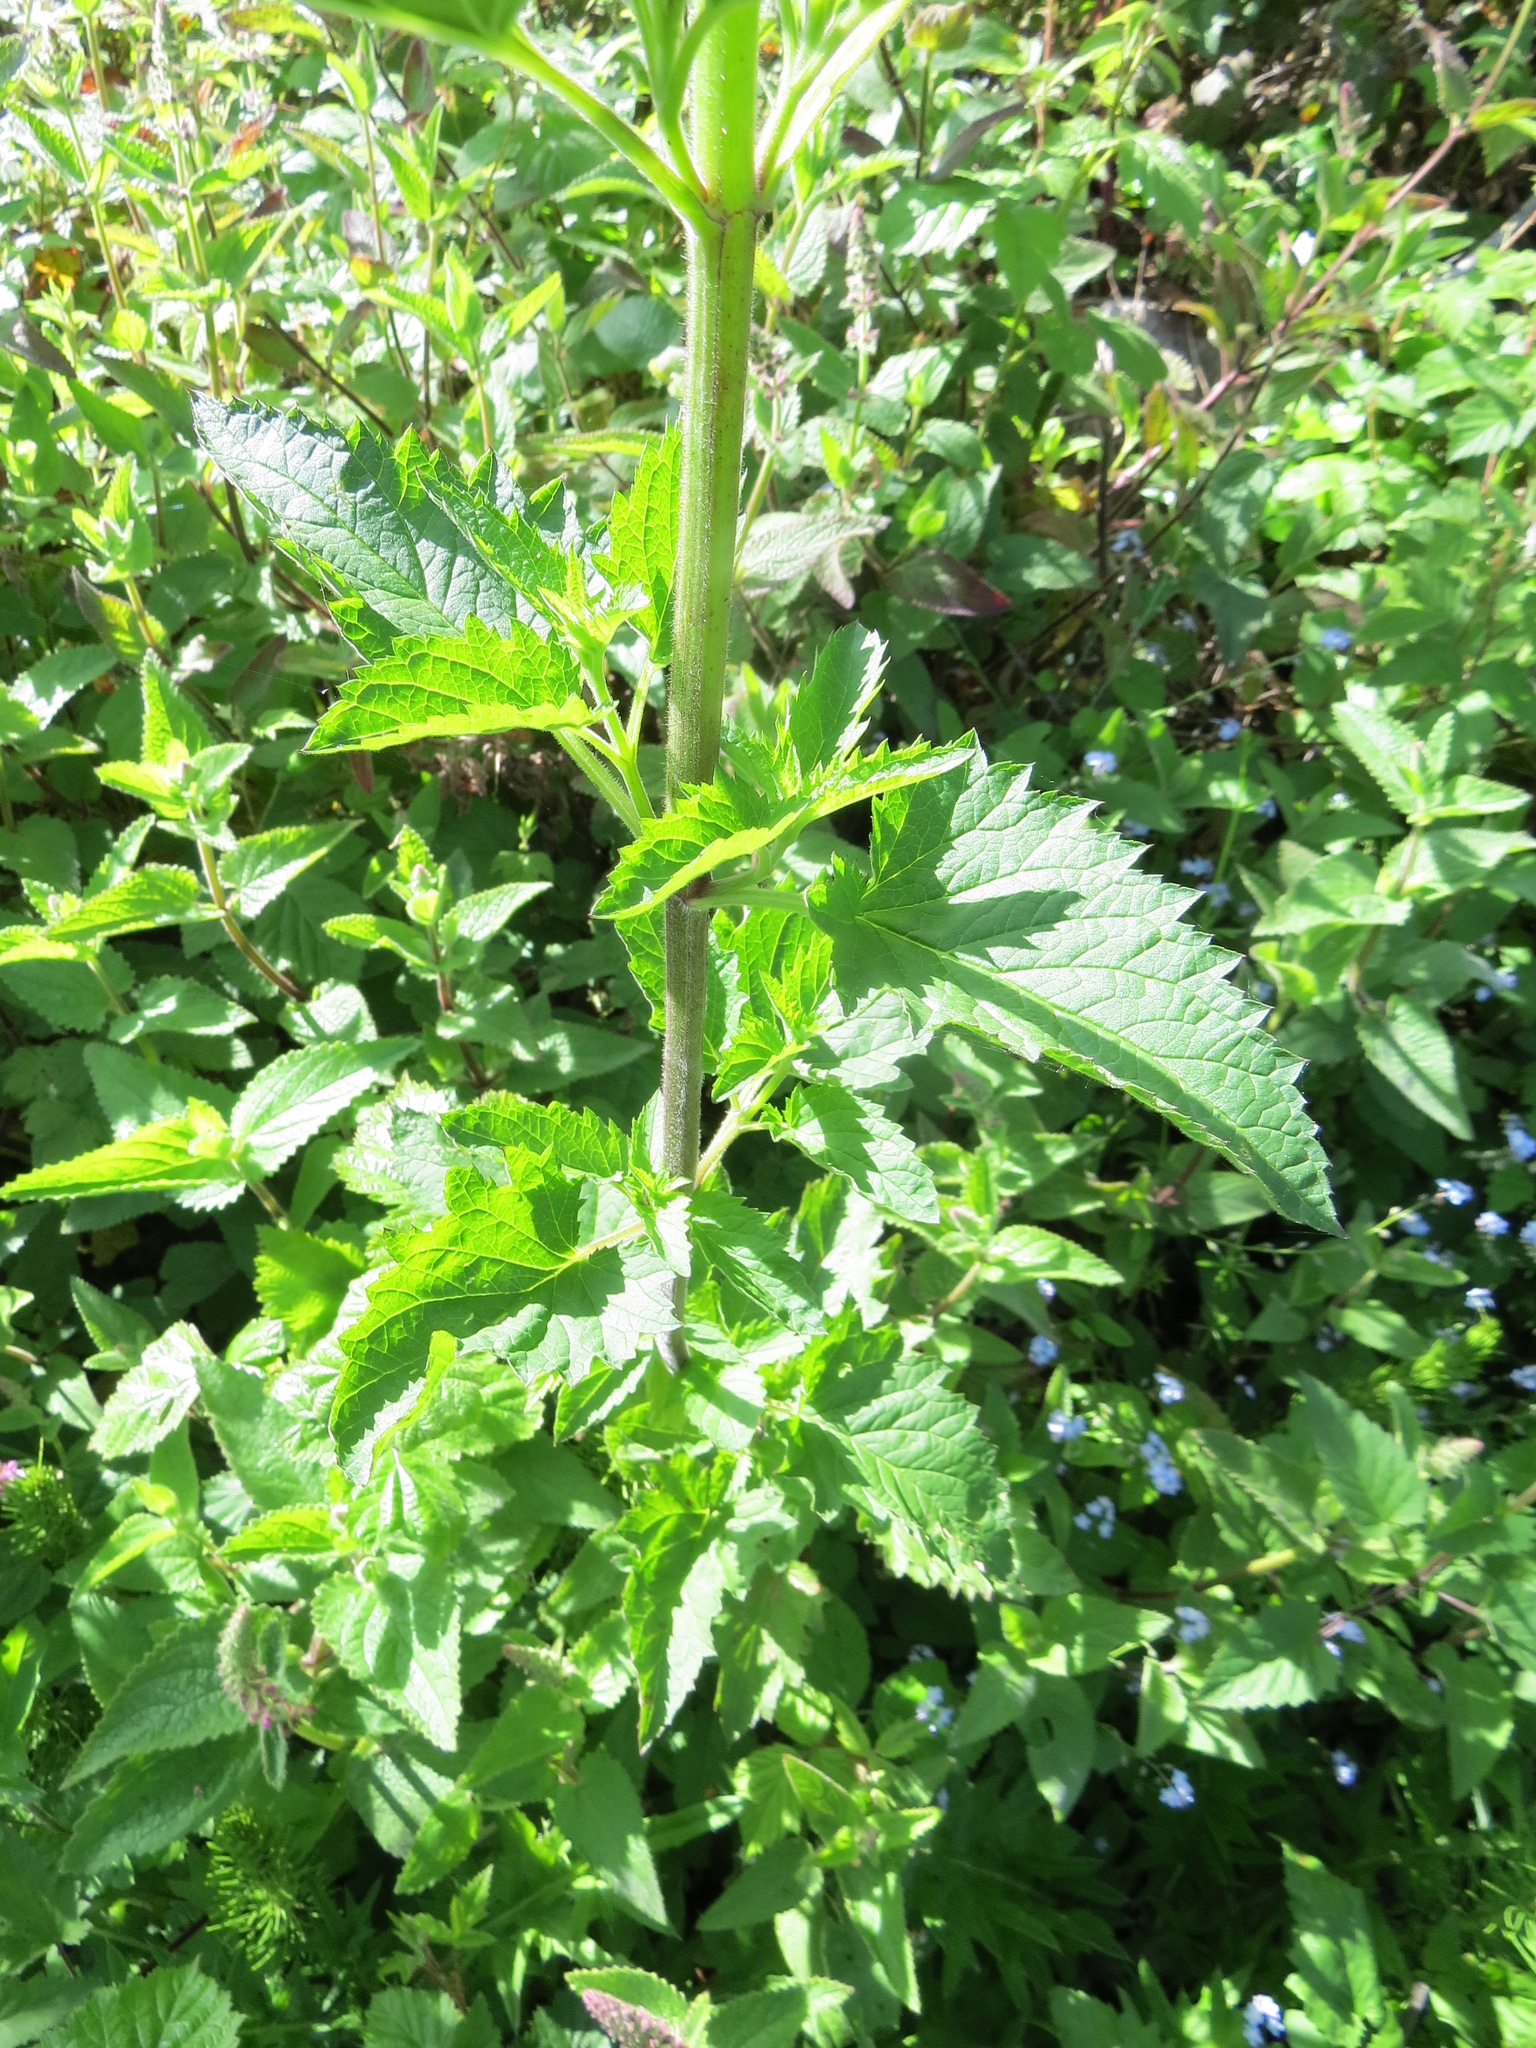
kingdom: Plantae
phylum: Tracheophyta
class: Magnoliopsida
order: Lamiales
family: Scrophulariaceae
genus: Scrophularia
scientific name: Scrophularia californica
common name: California figwort
